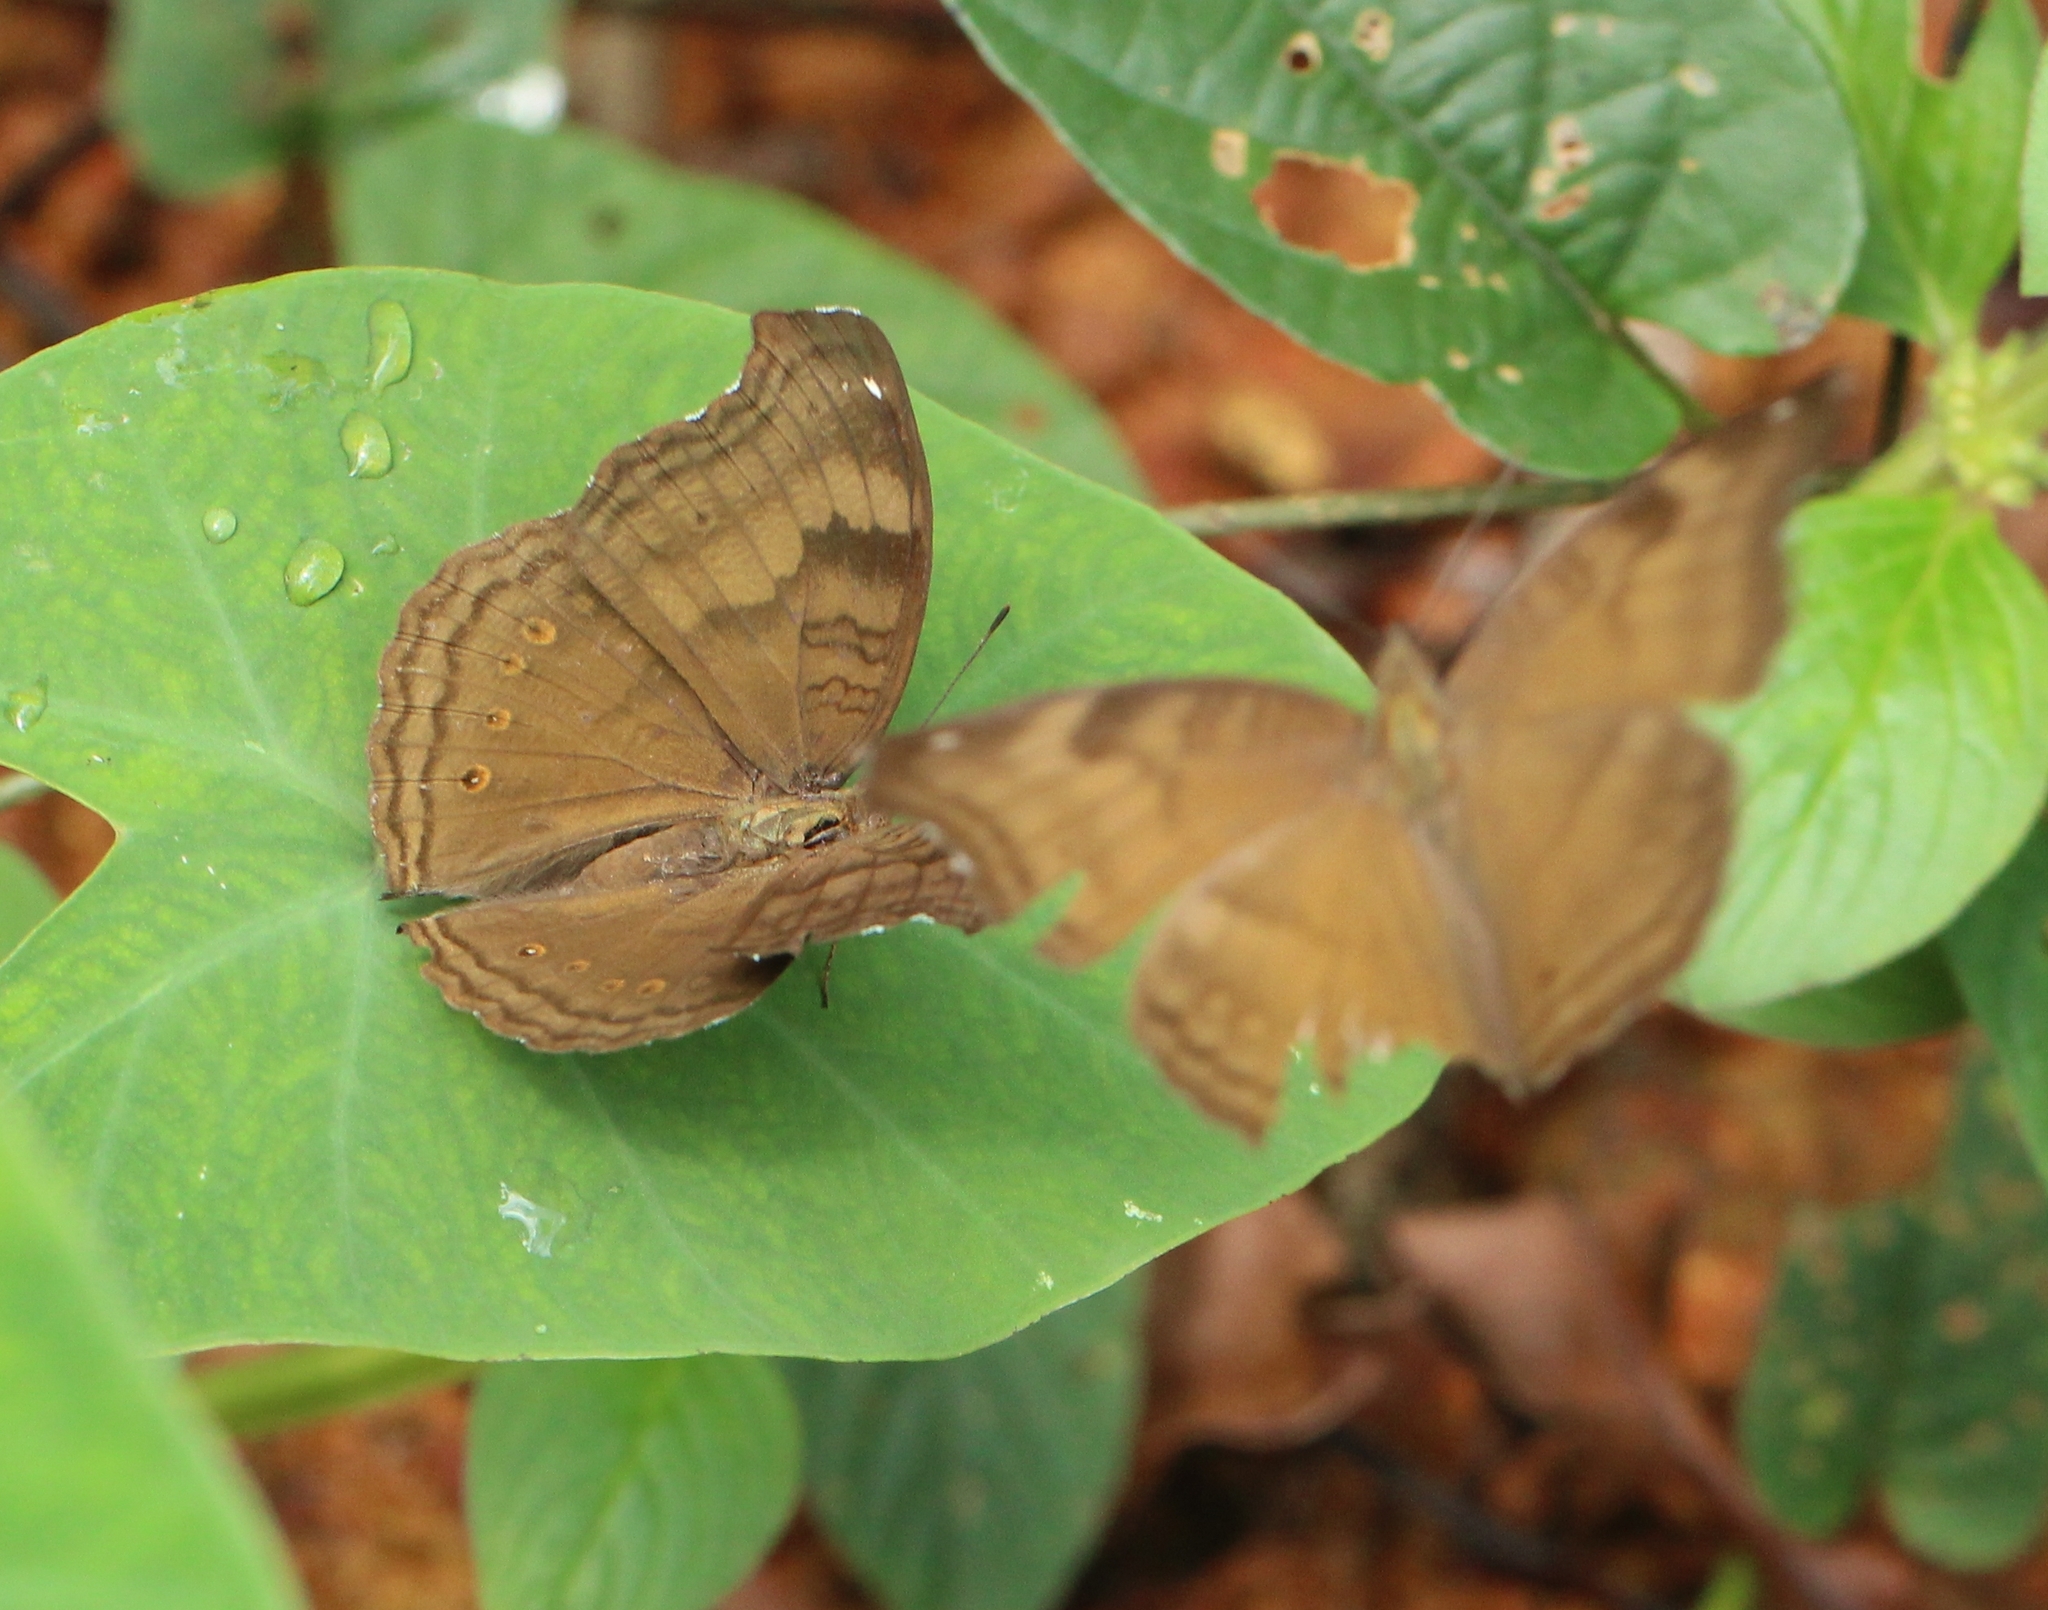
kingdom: Animalia
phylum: Arthropoda
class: Insecta
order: Lepidoptera
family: Nymphalidae
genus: Junonia
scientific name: Junonia iphita
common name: Chocolate pansy
